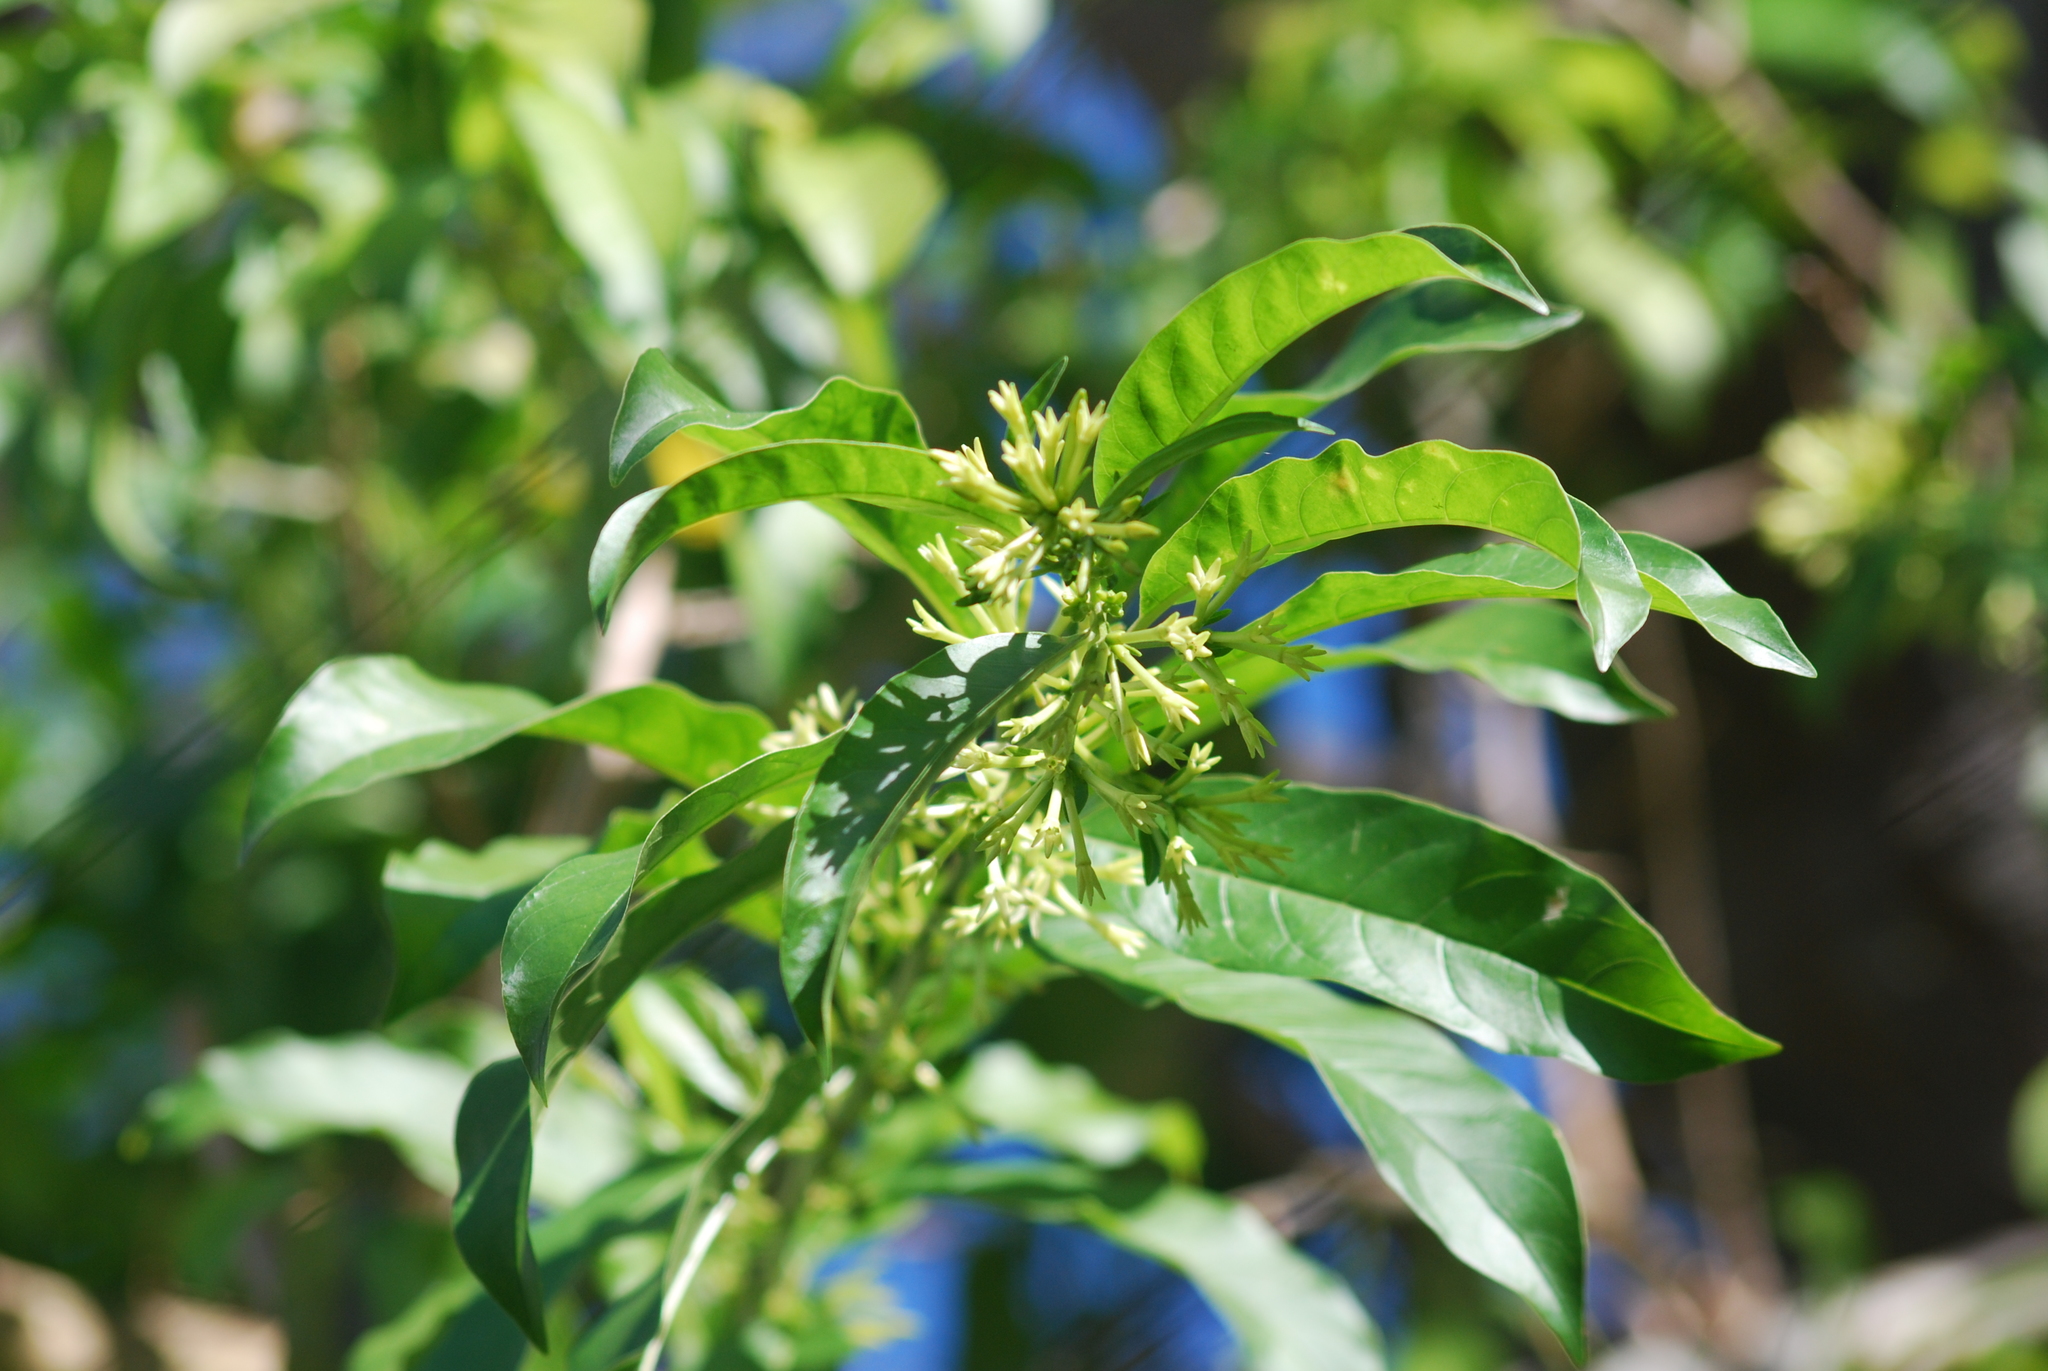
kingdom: Plantae
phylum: Tracheophyta
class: Magnoliopsida
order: Solanales
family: Solanaceae
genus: Cestrum
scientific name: Cestrum laevigatum
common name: Inkberry
